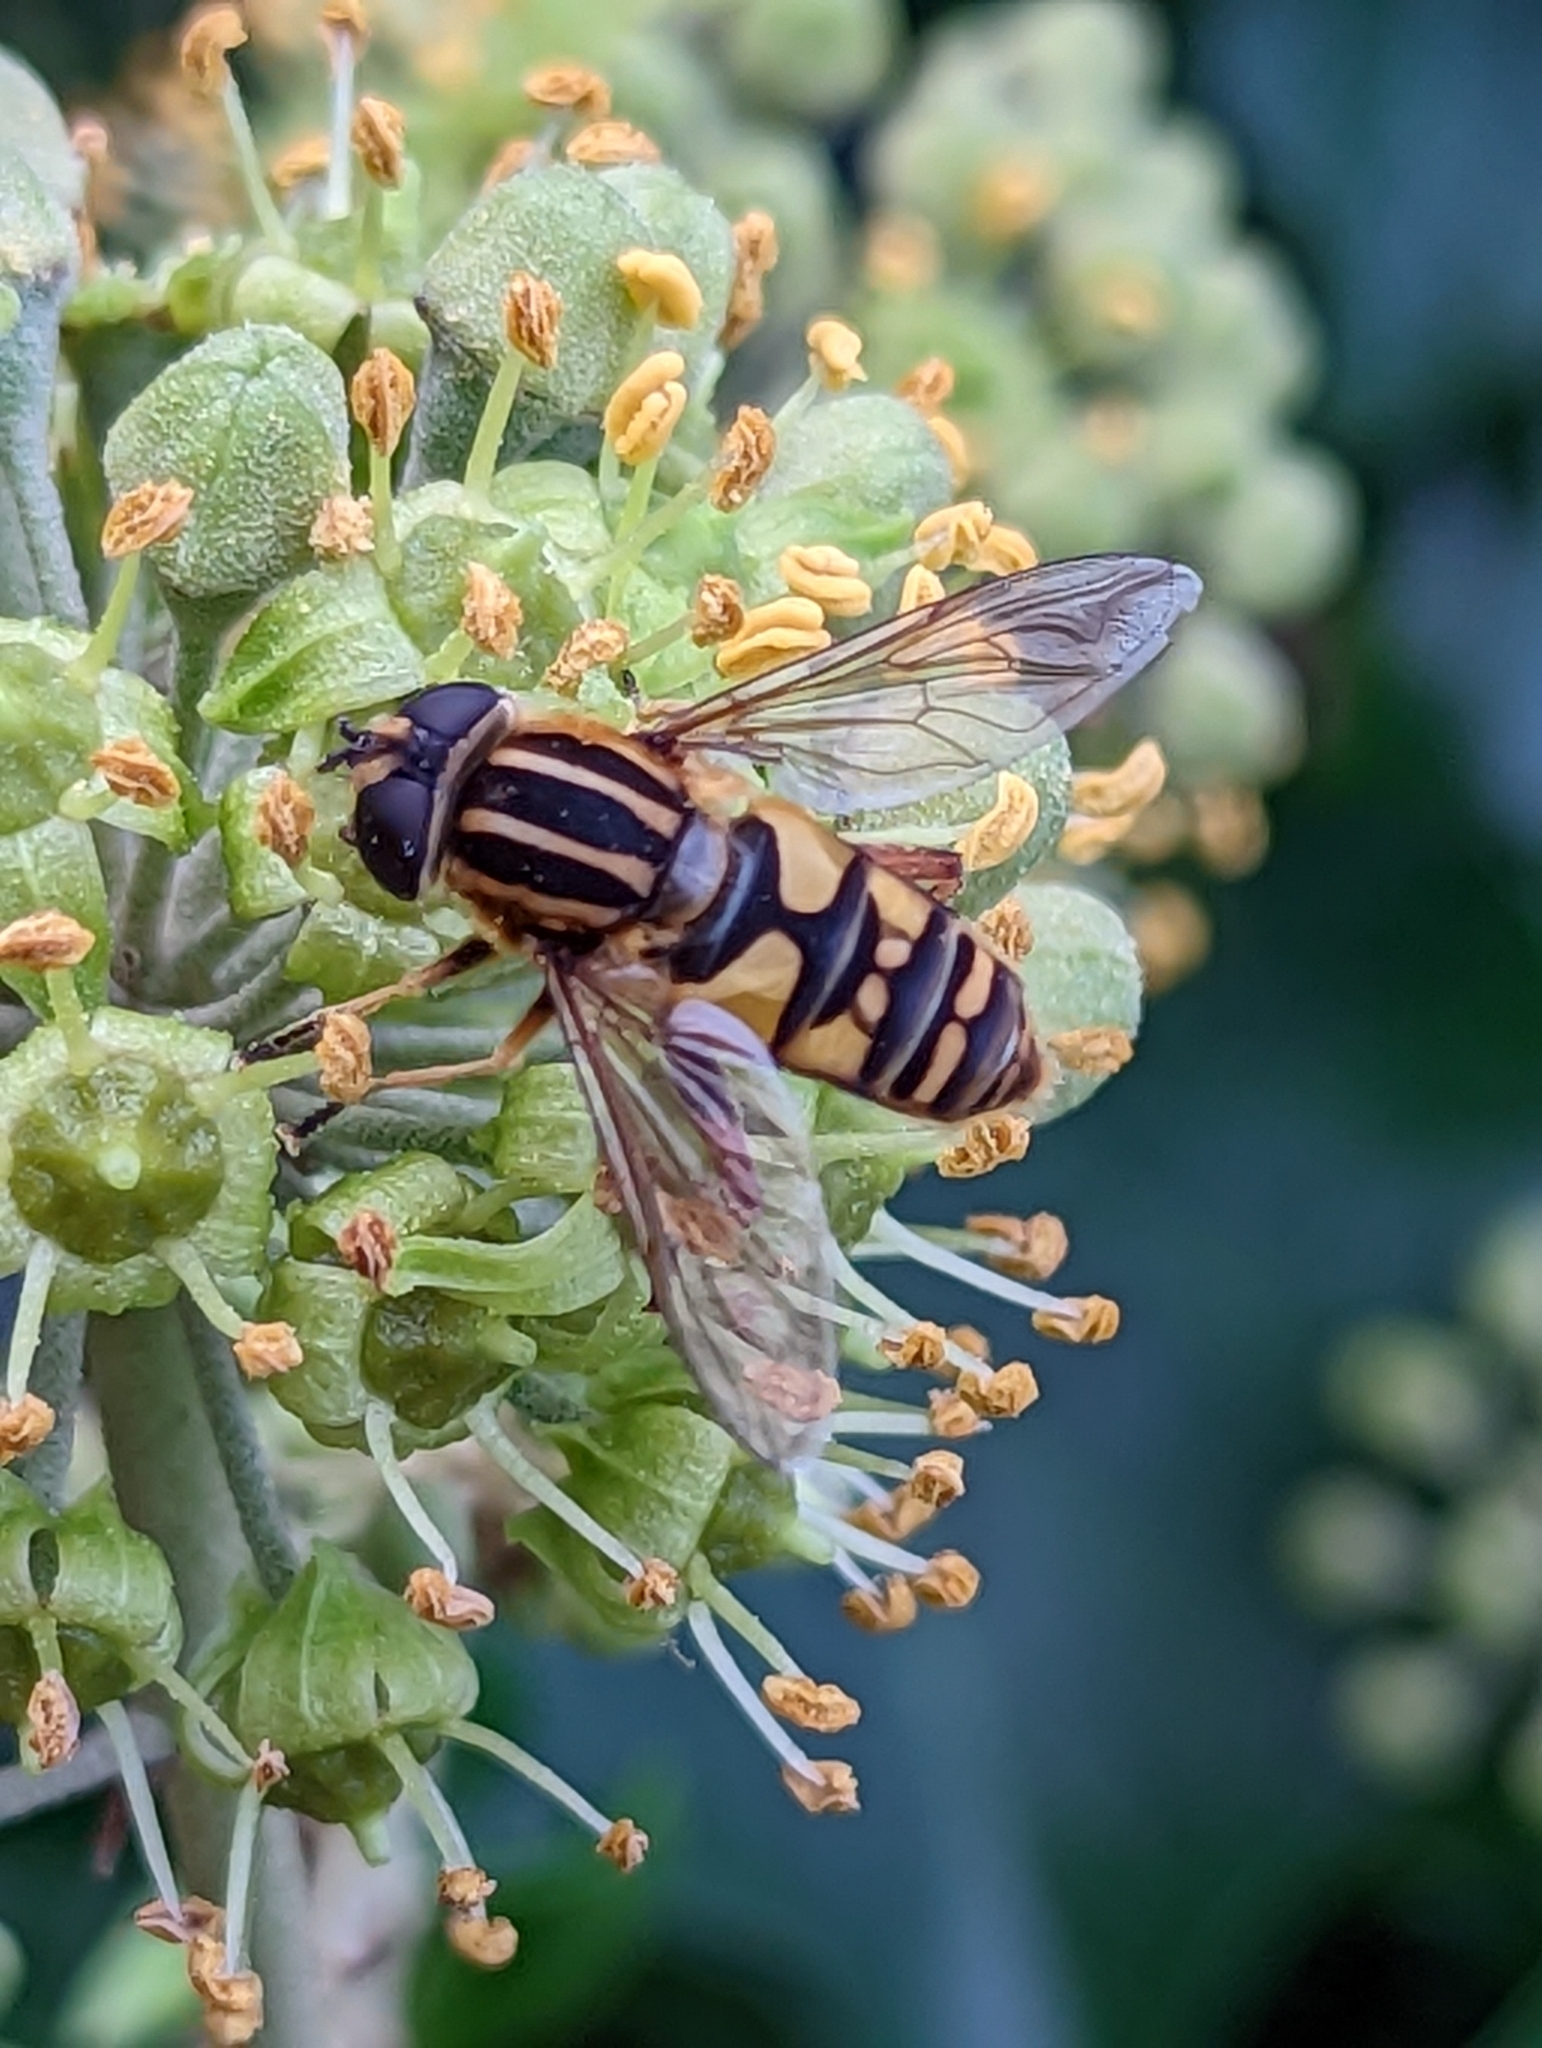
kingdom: Animalia
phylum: Arthropoda
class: Insecta
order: Diptera
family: Syrphidae
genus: Helophilus
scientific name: Helophilus pendulus
